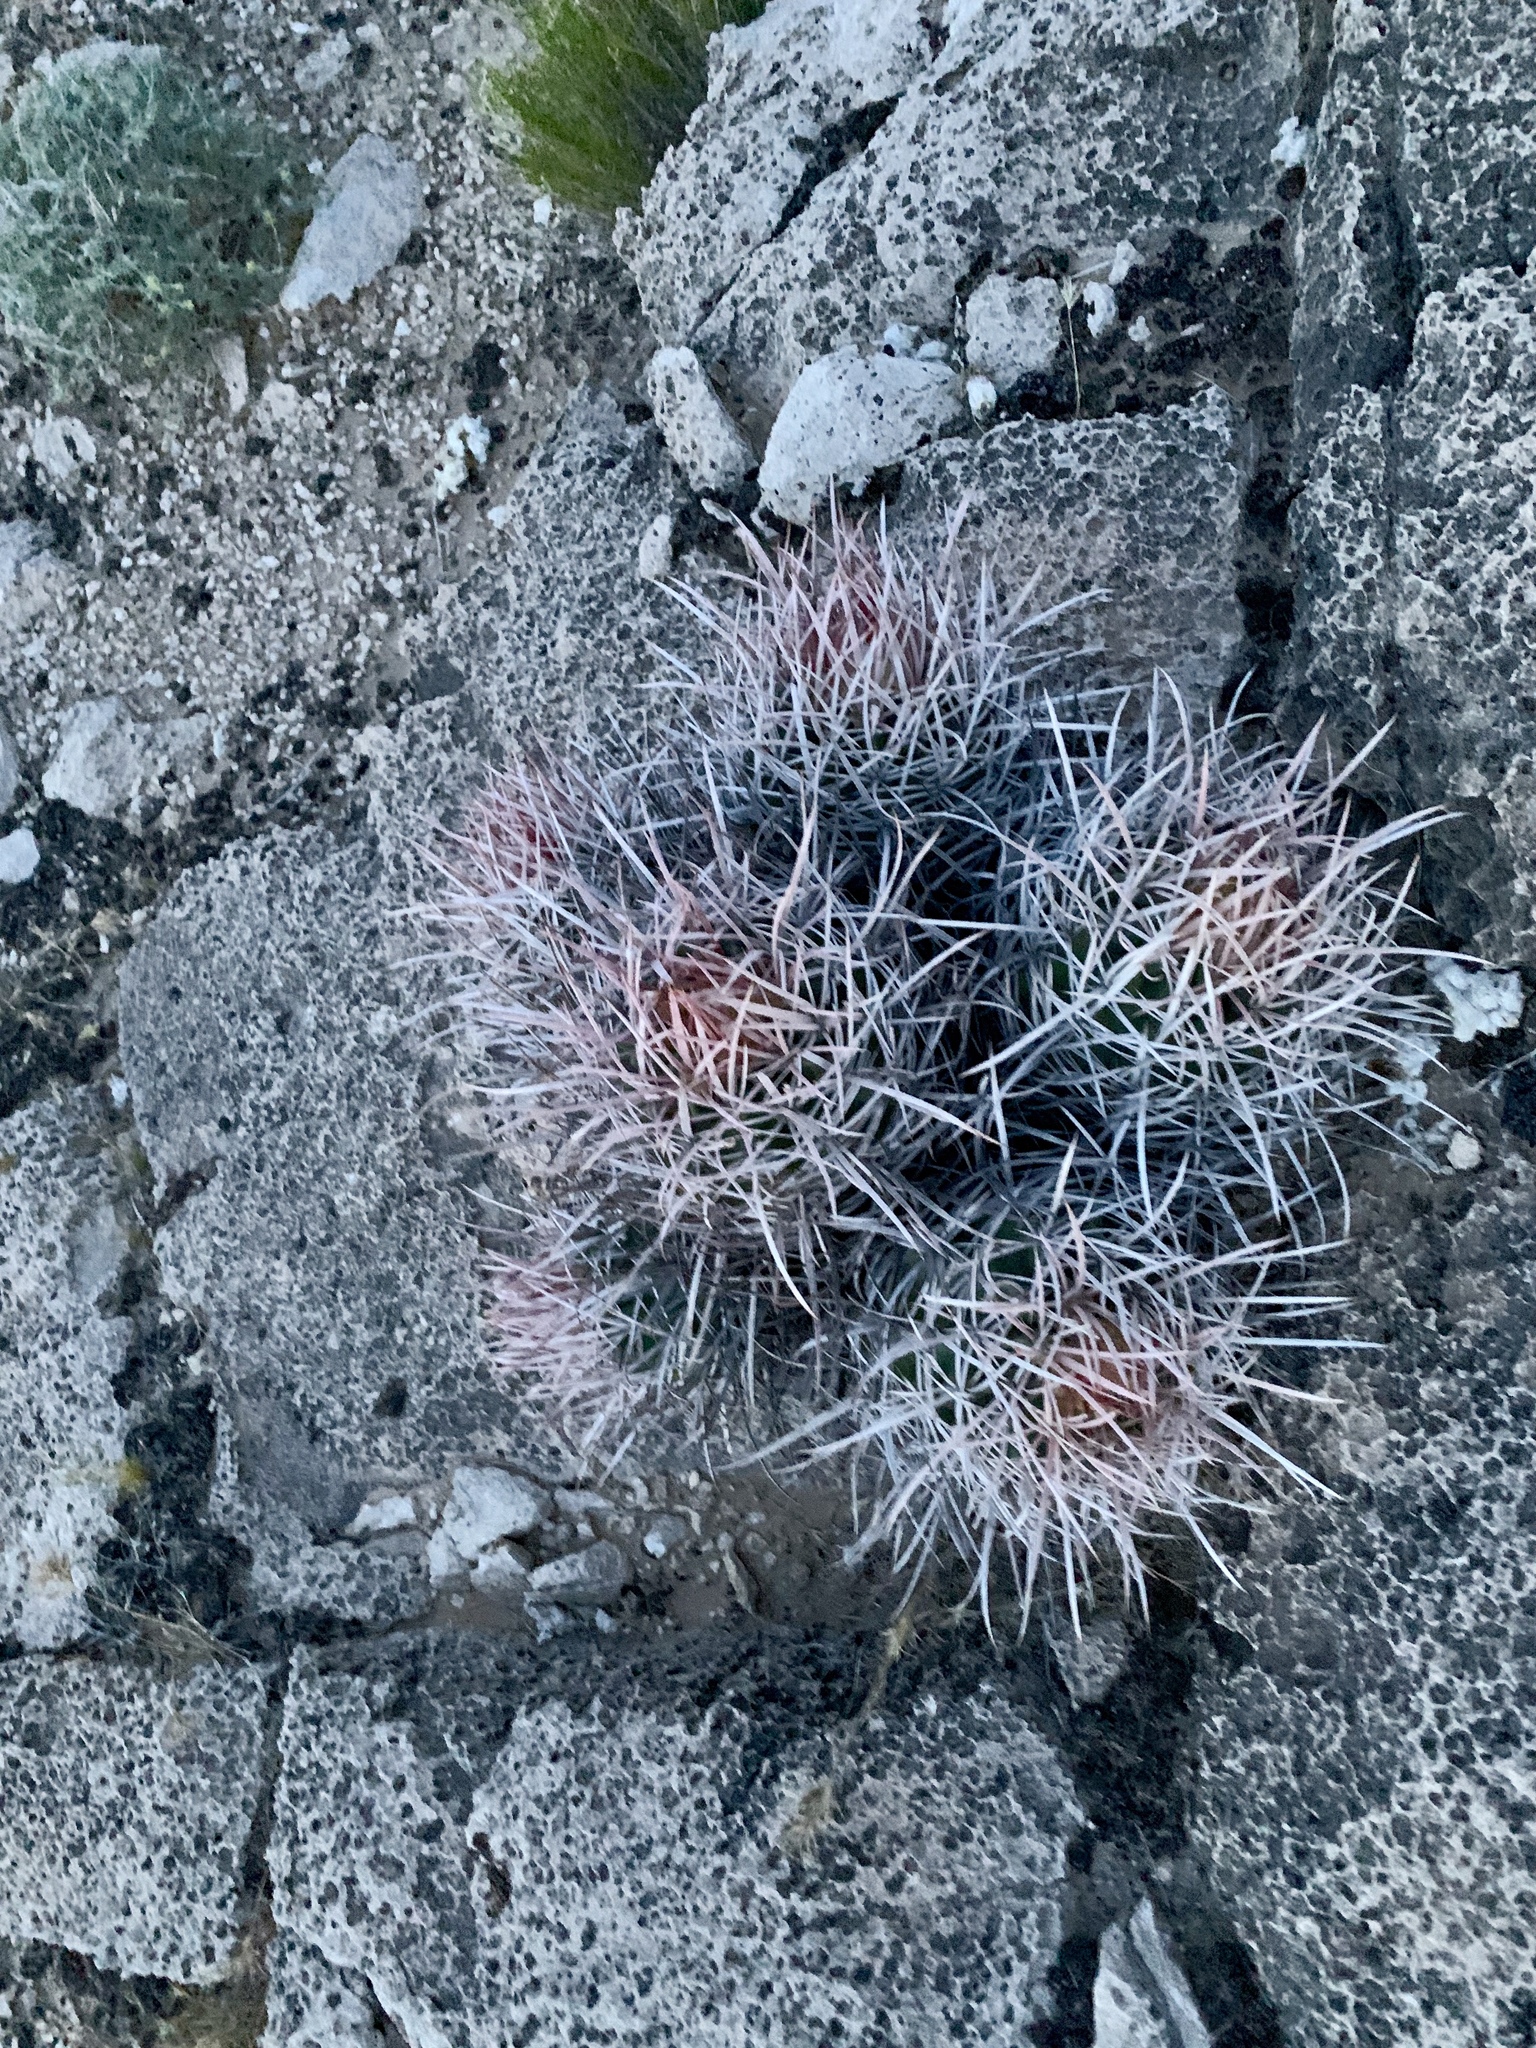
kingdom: Plantae
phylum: Tracheophyta
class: Magnoliopsida
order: Caryophyllales
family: Cactaceae
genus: Echinocactus
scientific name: Echinocactus polycephalus
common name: Cottontop cactus
